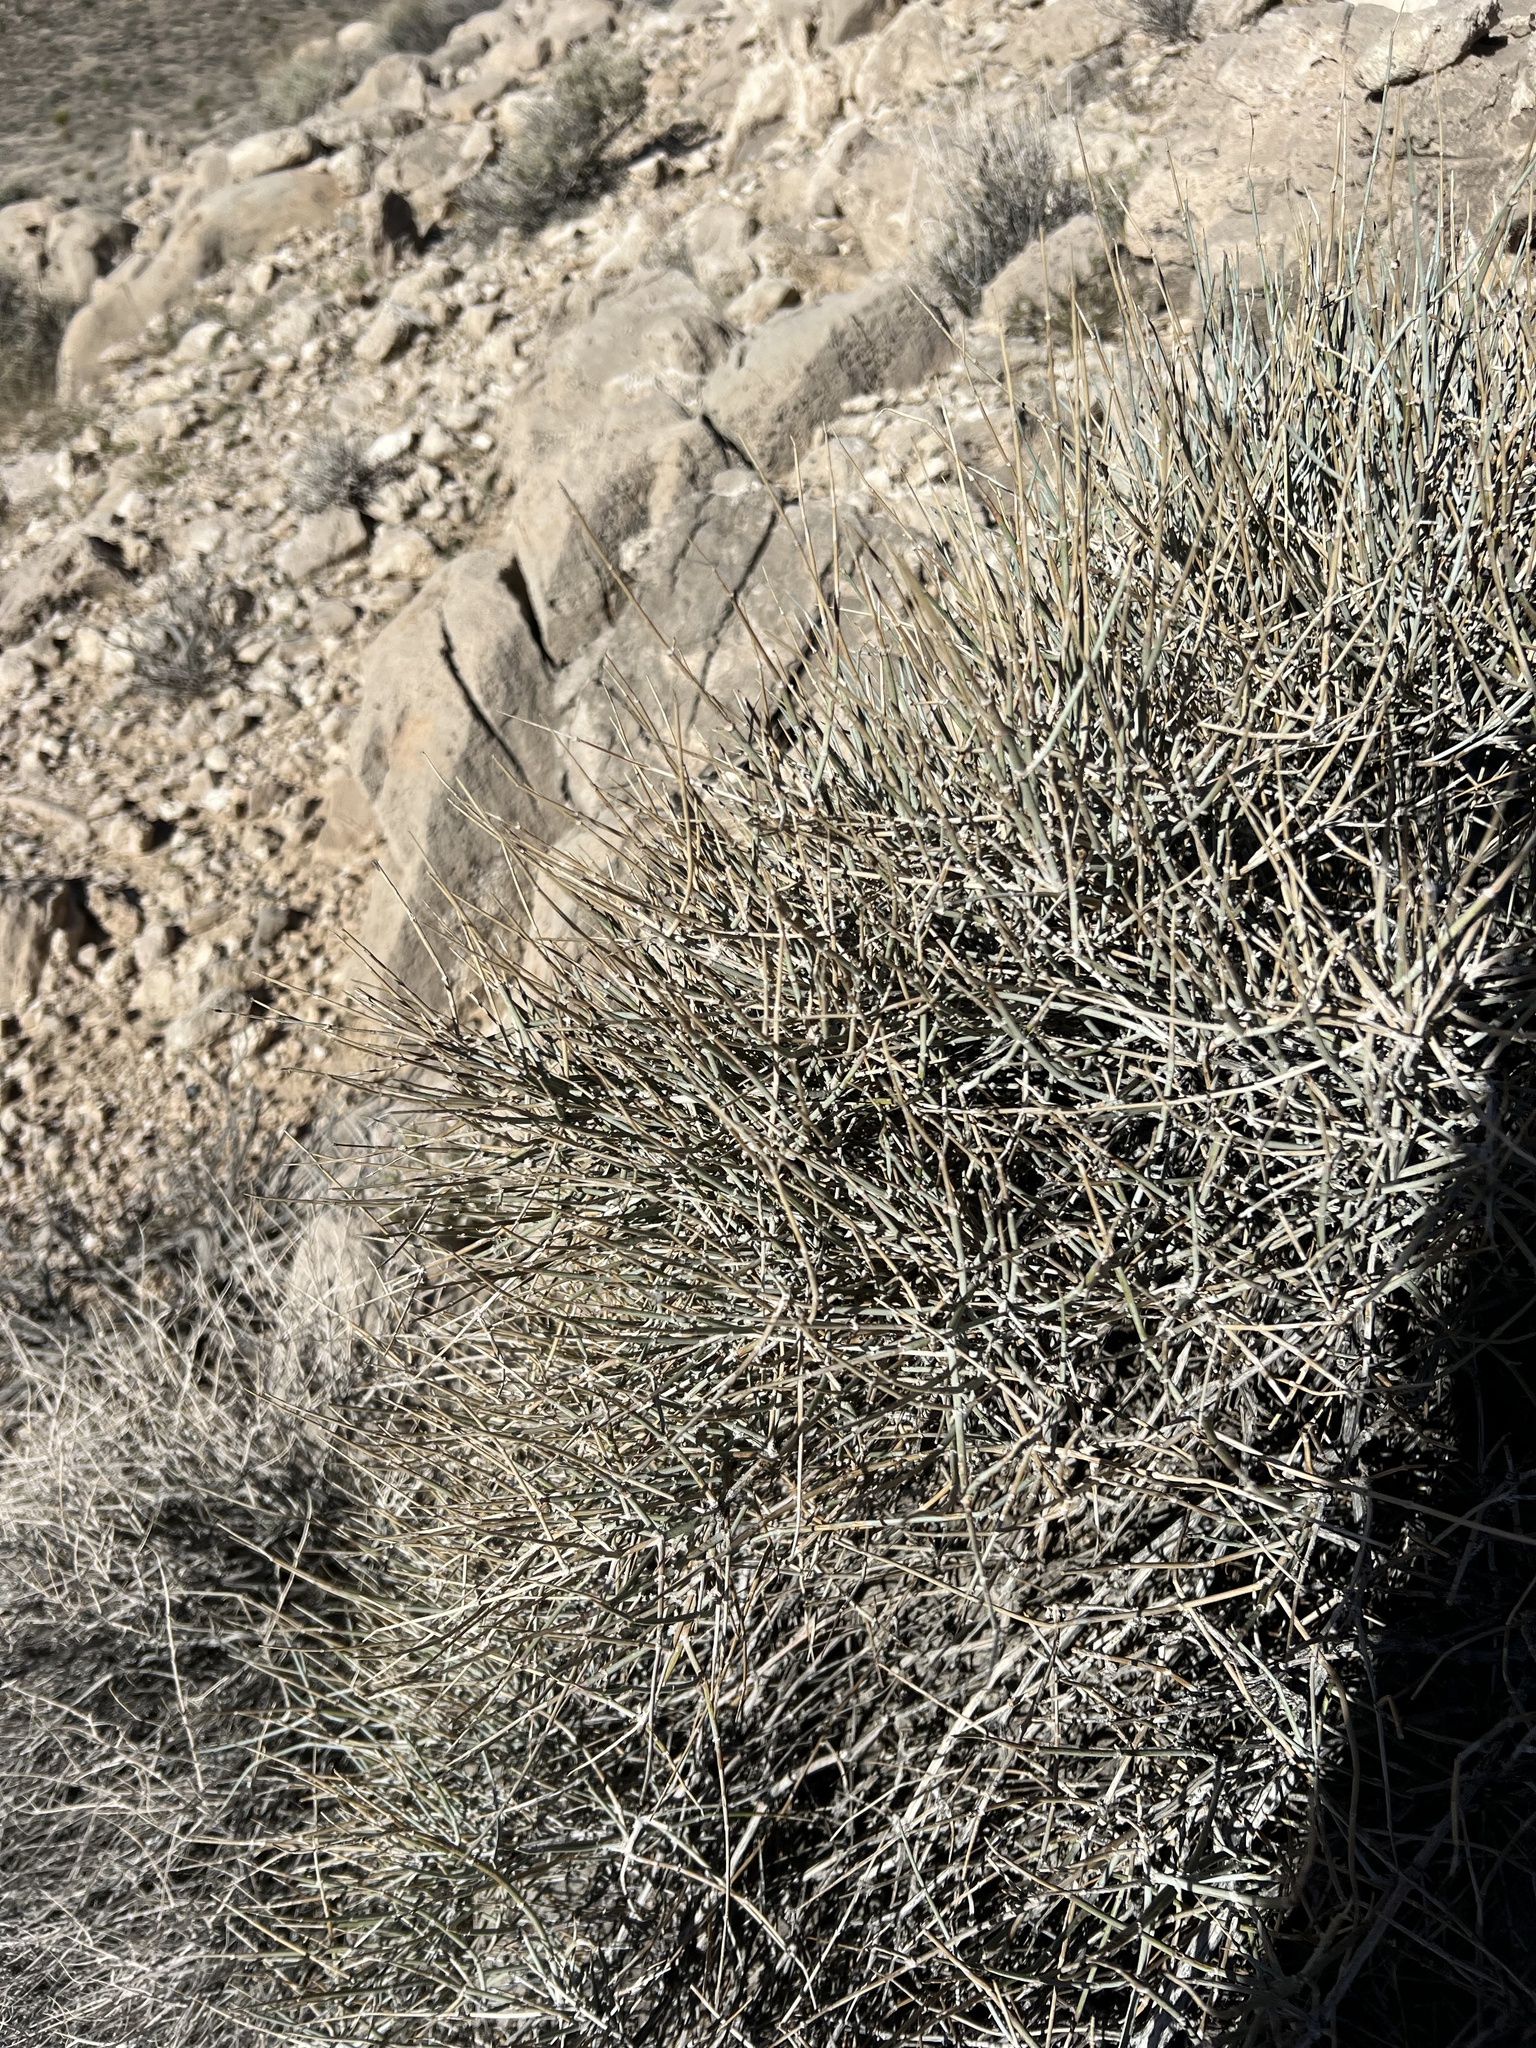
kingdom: Plantae
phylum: Tracheophyta
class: Gnetopsida
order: Ephedrales
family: Ephedraceae
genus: Ephedra
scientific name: Ephedra nevadensis
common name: Gray ephedra
